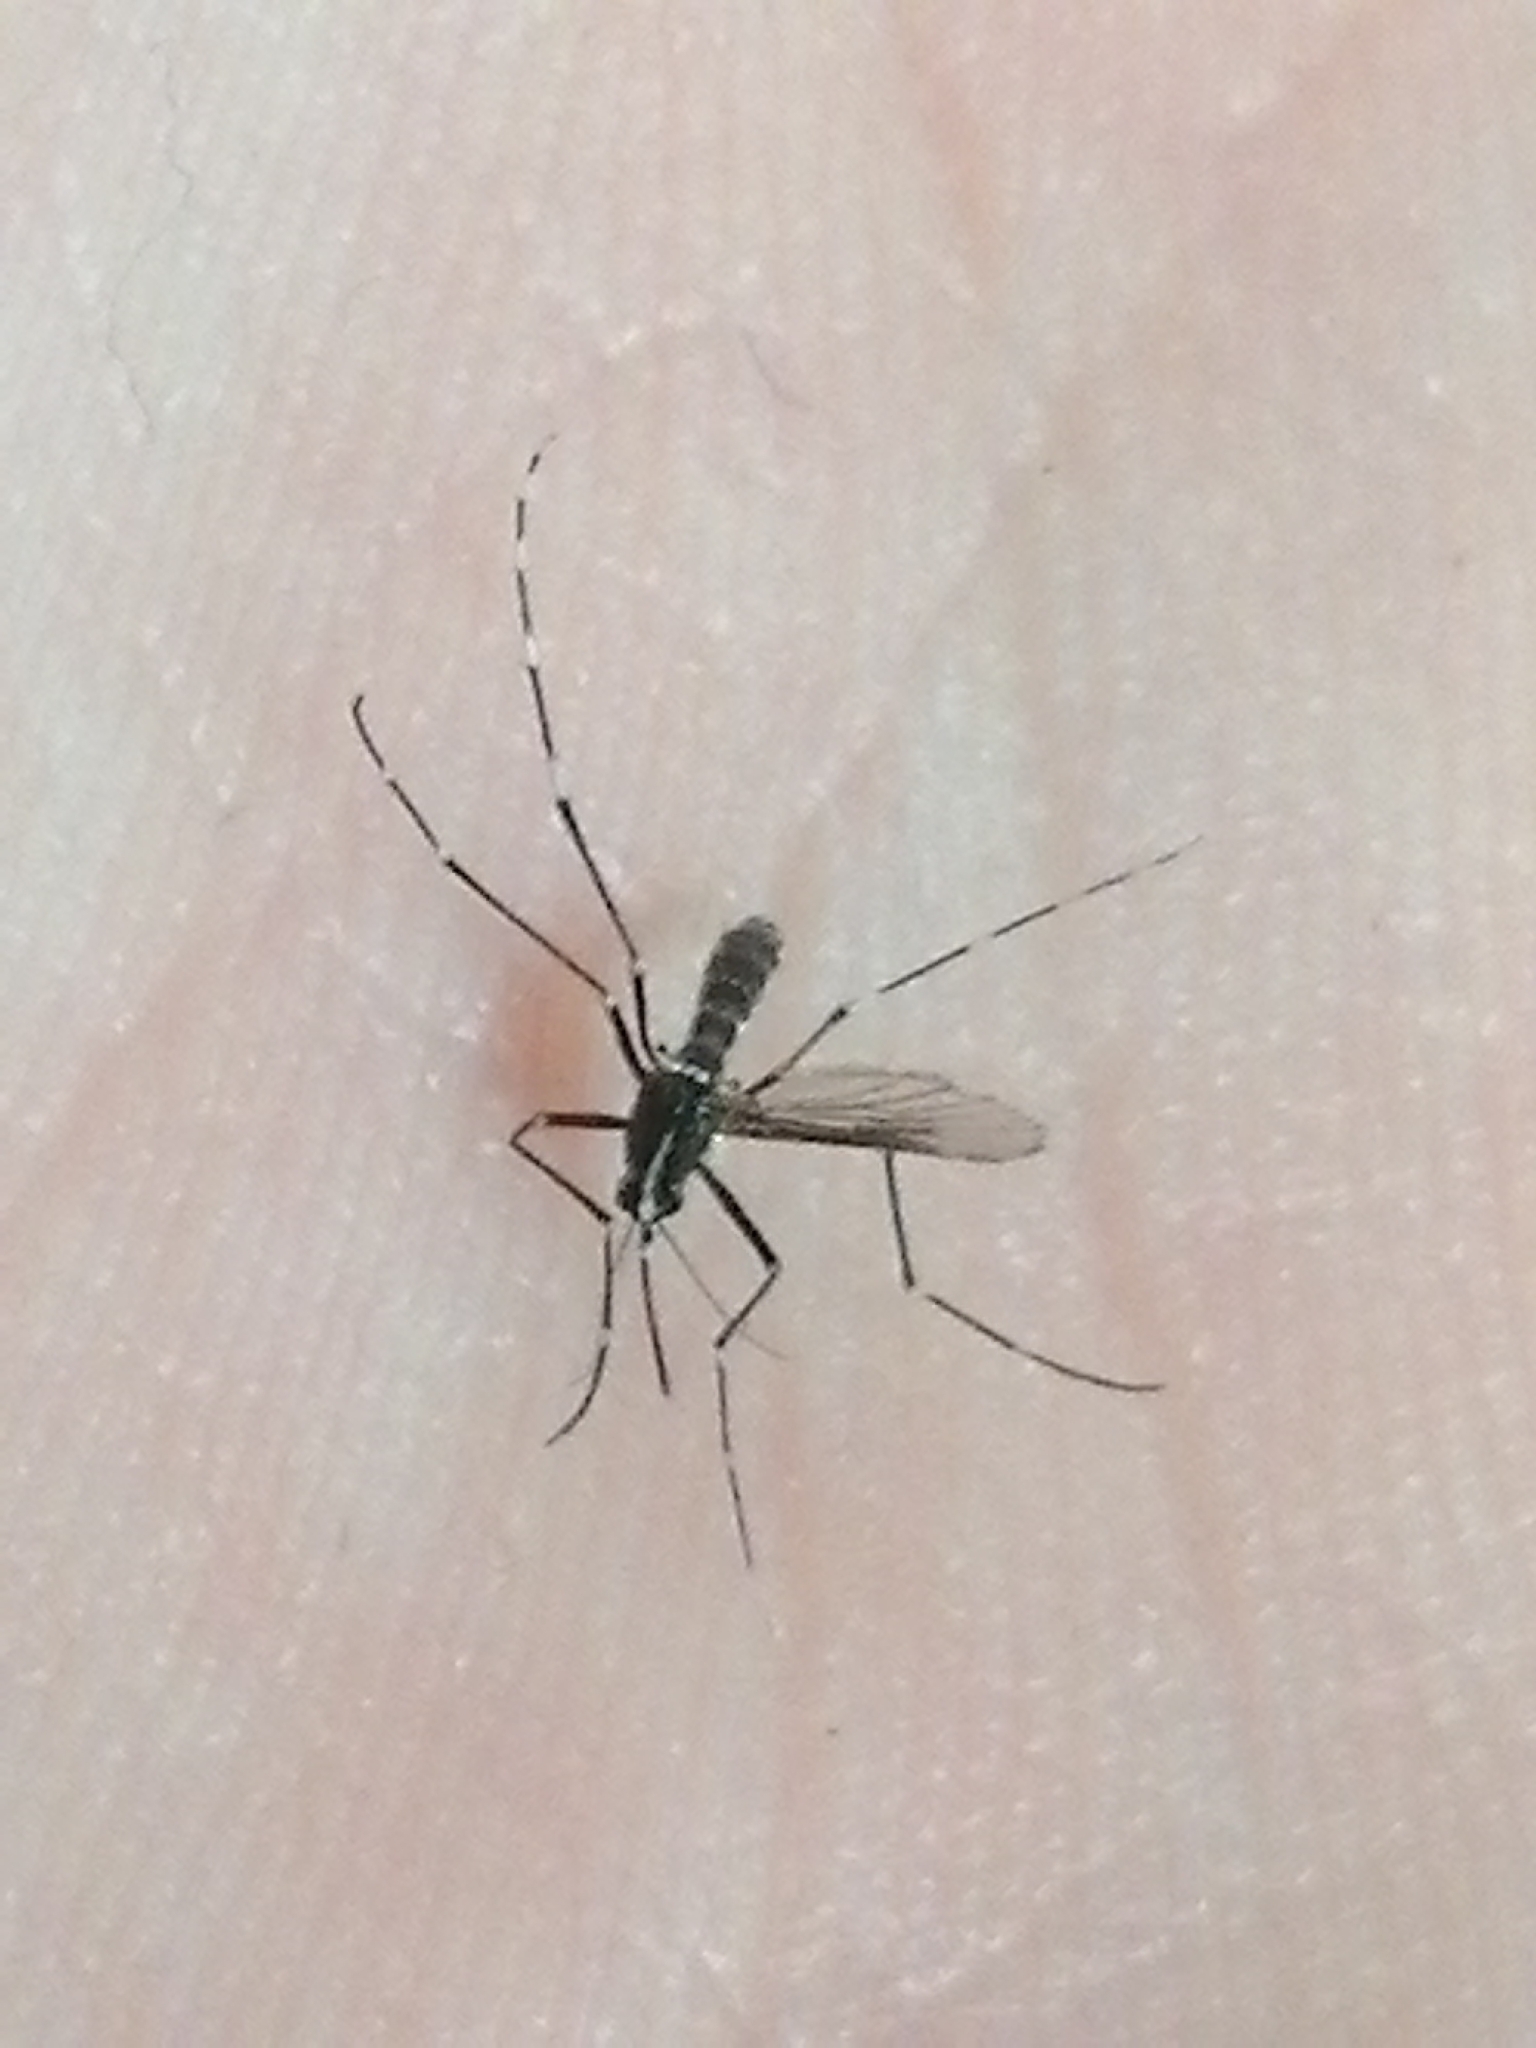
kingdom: Animalia
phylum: Arthropoda
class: Insecta
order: Diptera
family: Culicidae
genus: Aedes
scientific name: Aedes albopictus
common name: Tiger mosquito
